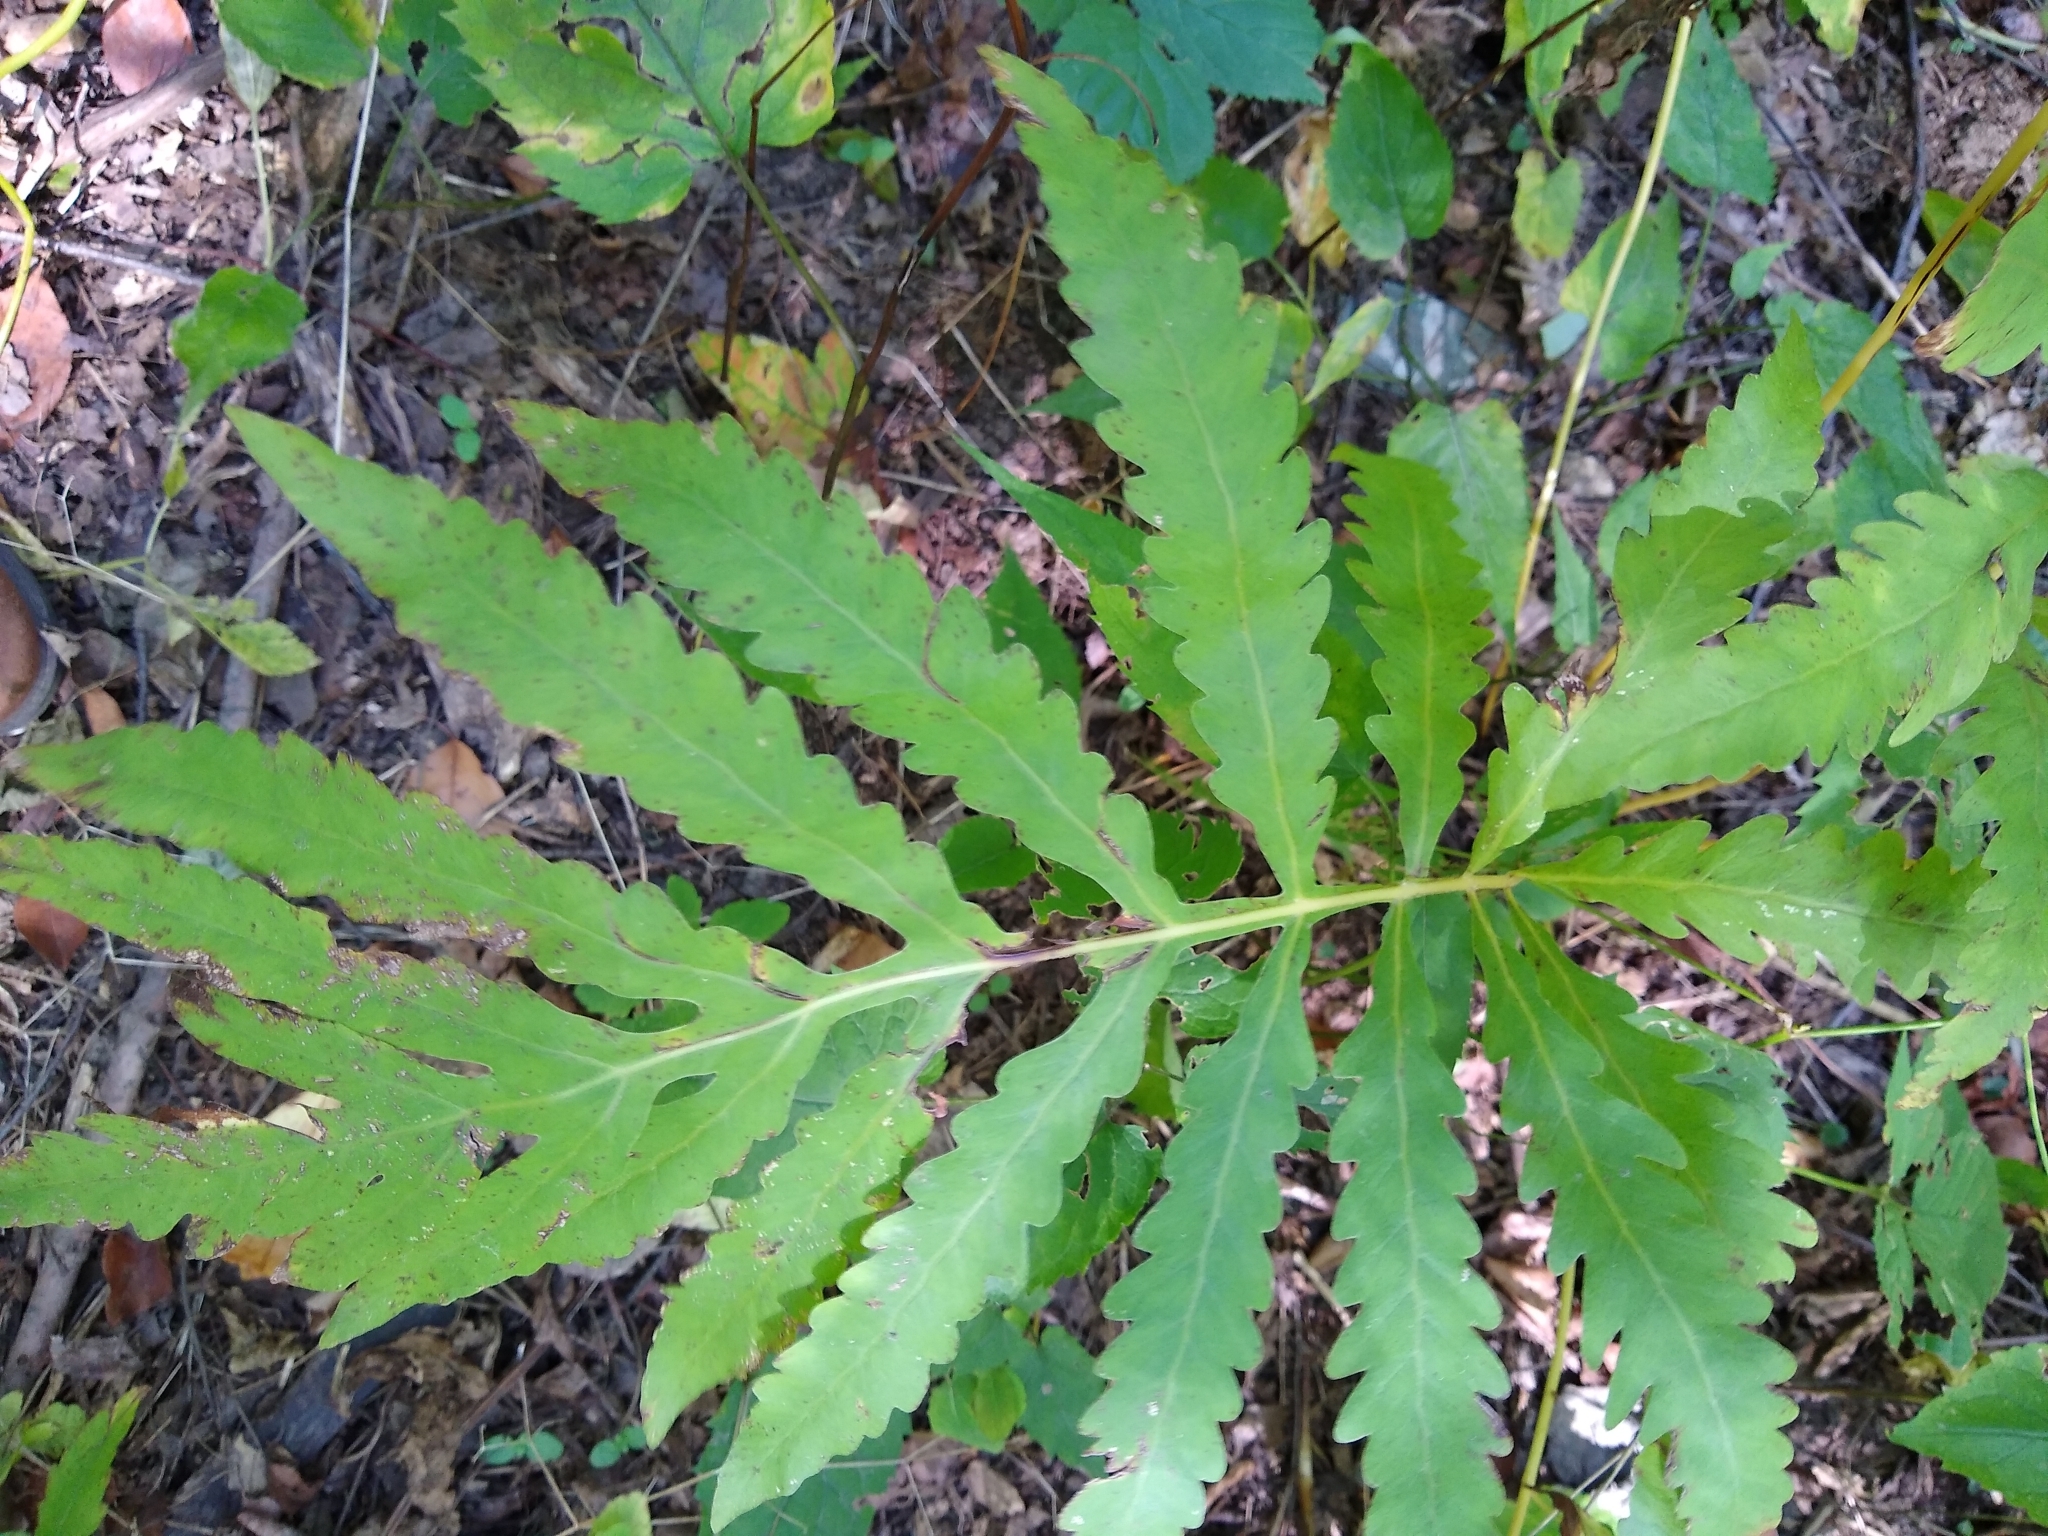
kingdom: Plantae
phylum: Tracheophyta
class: Polypodiopsida
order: Polypodiales
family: Onocleaceae
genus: Onoclea
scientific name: Onoclea sensibilis
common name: Sensitive fern
